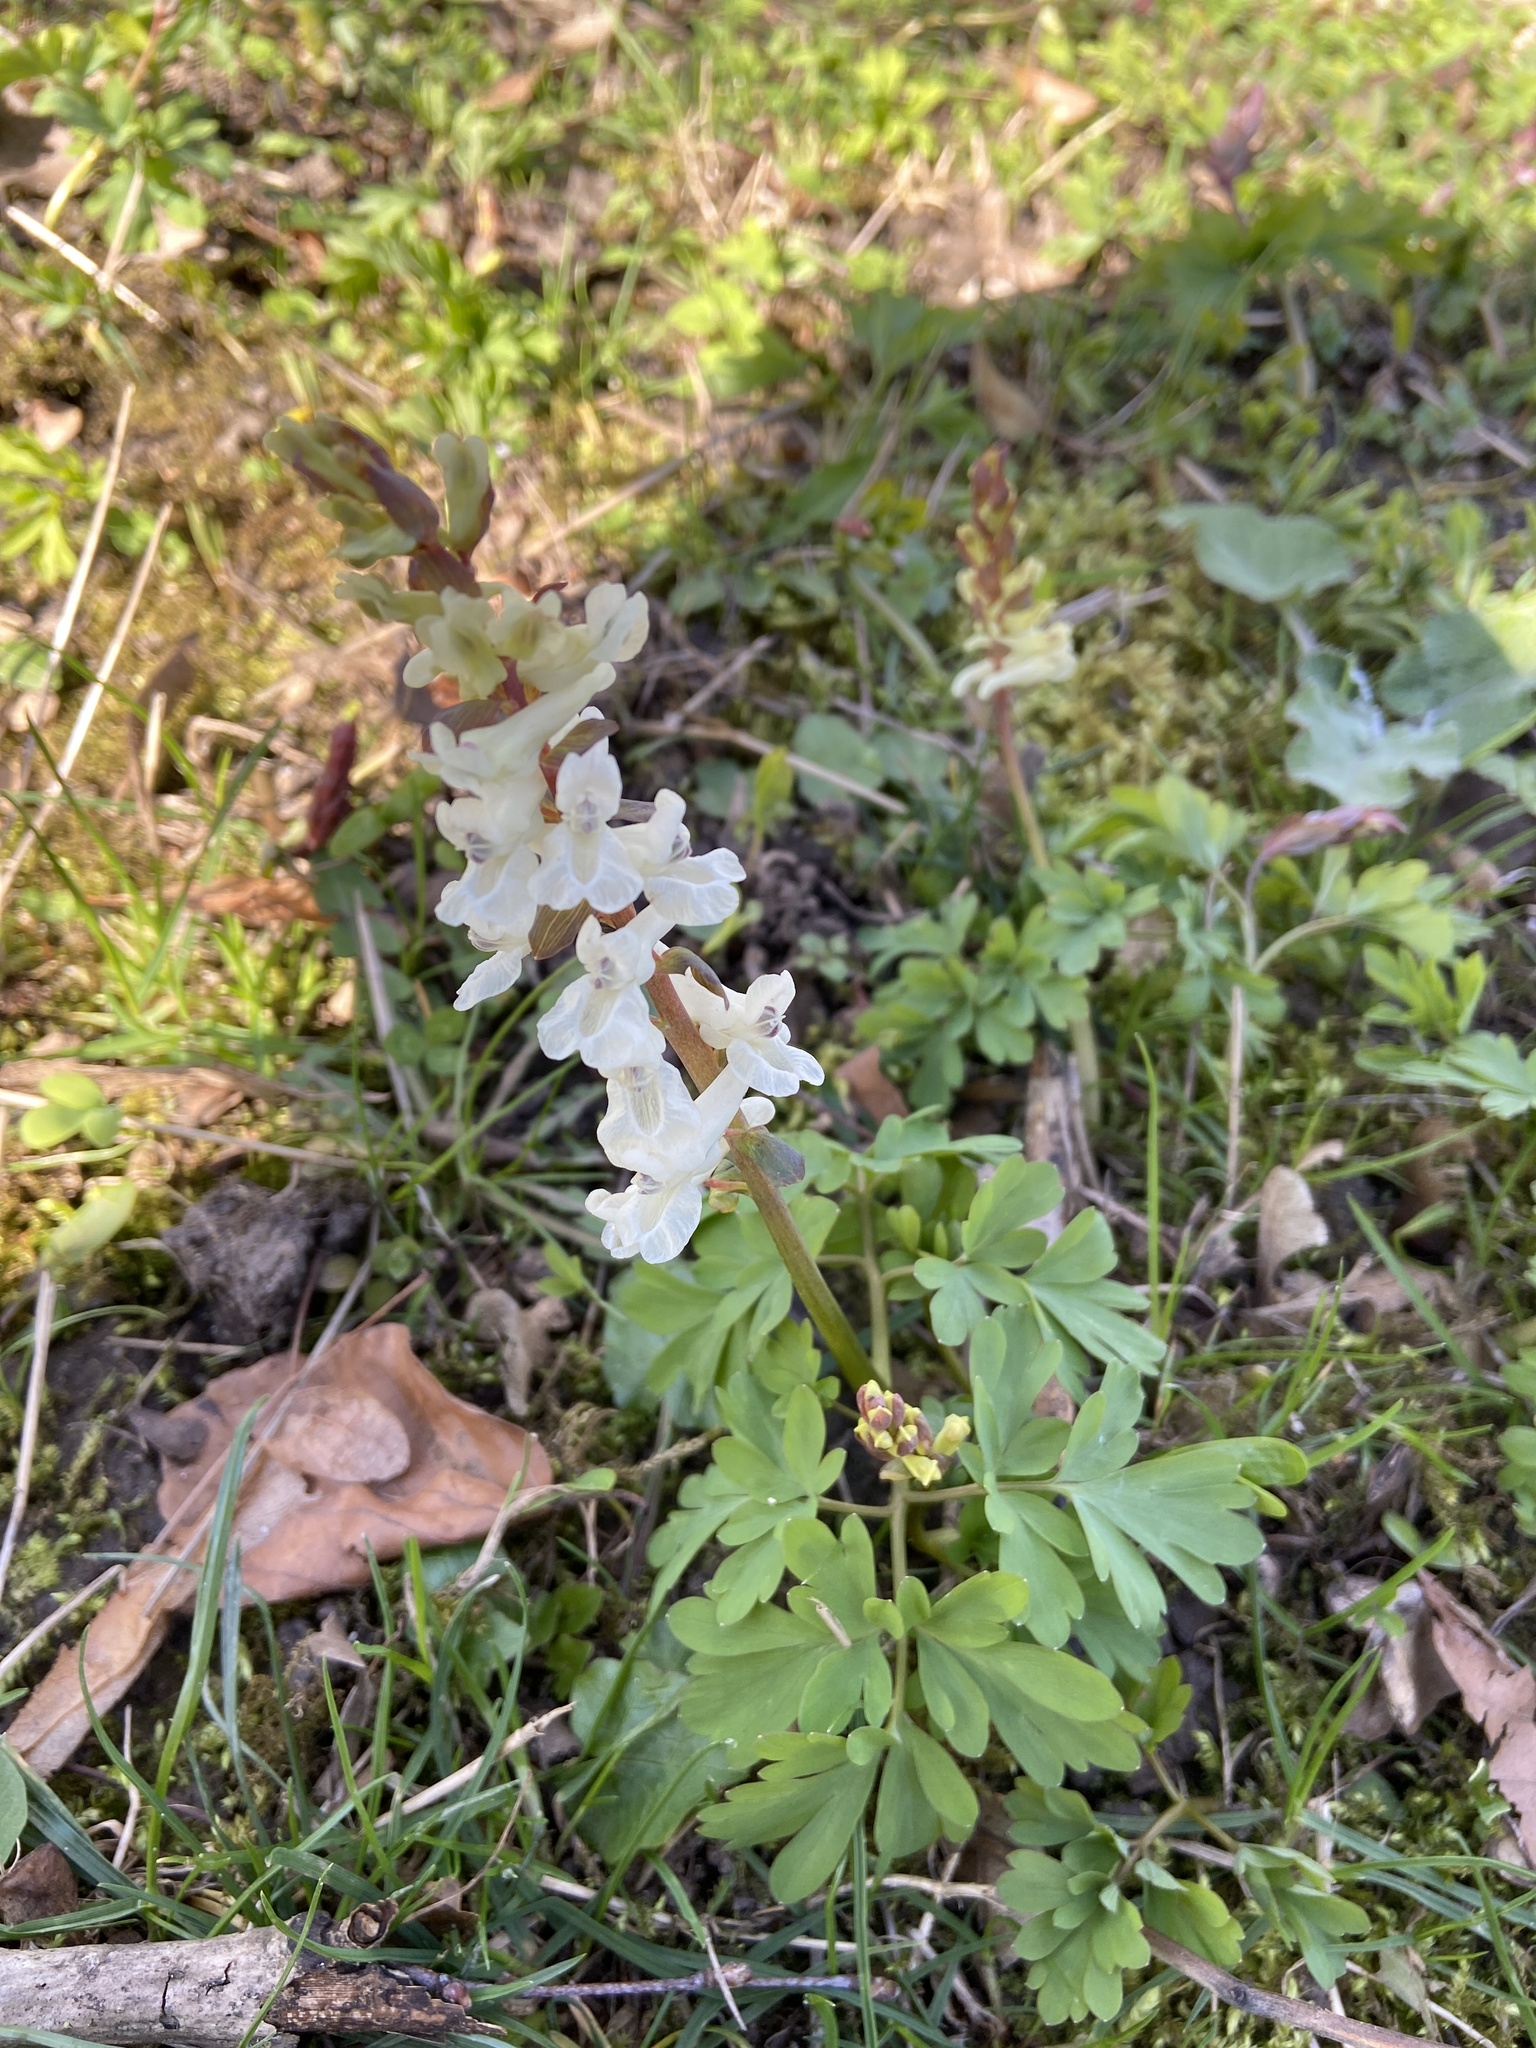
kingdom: Plantae
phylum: Tracheophyta
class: Magnoliopsida
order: Ranunculales
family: Papaveraceae
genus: Corydalis
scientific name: Corydalis cava
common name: Hollowroot
